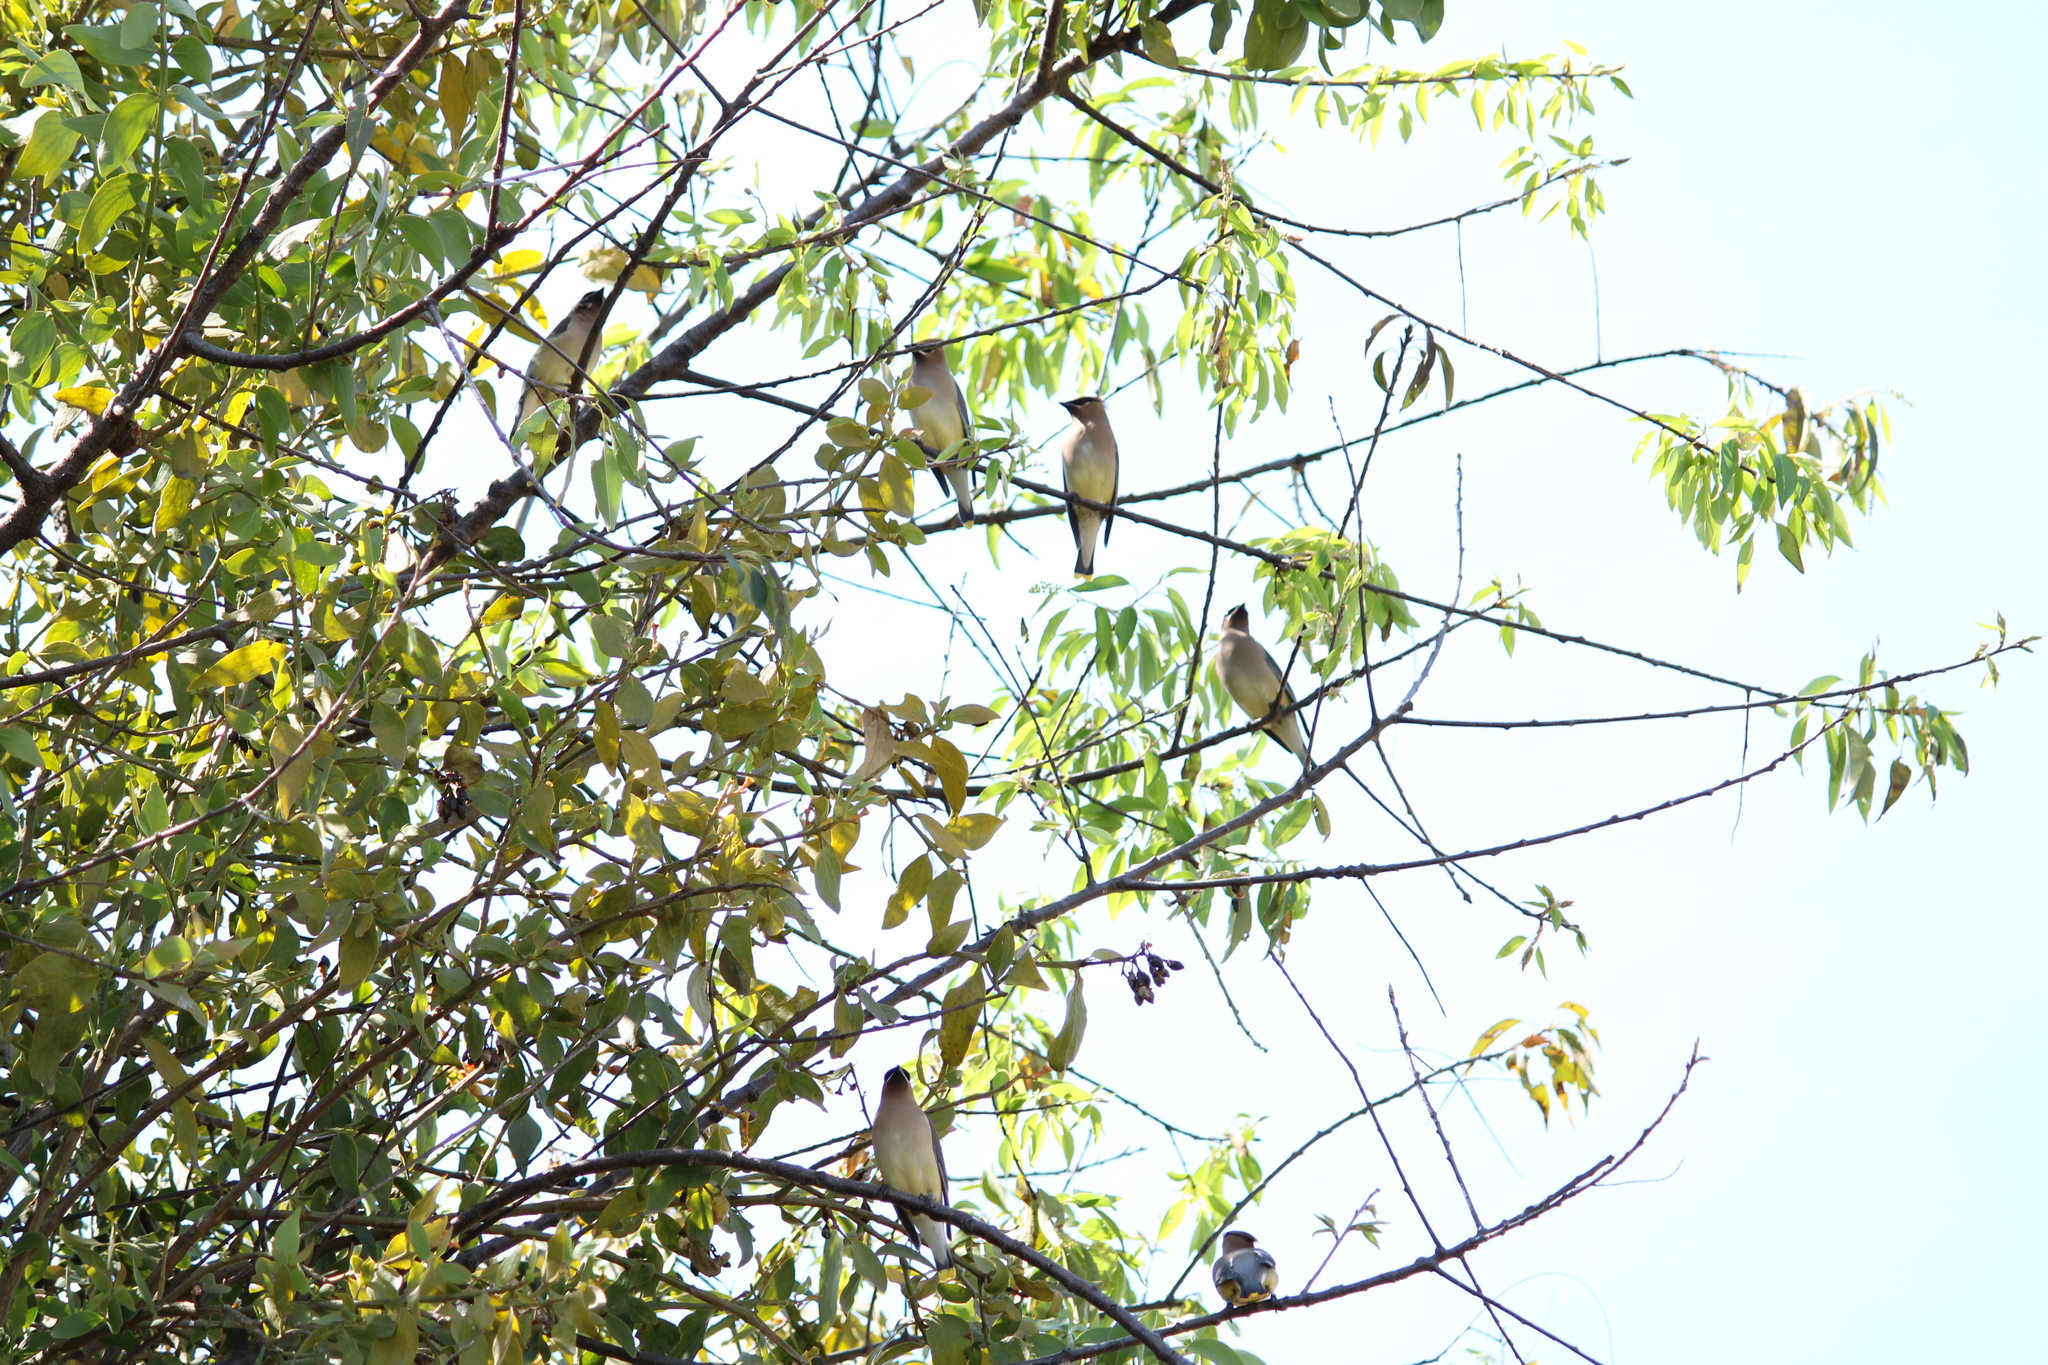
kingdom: Animalia
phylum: Chordata
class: Aves
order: Passeriformes
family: Bombycillidae
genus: Bombycilla
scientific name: Bombycilla cedrorum
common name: Cedar waxwing
